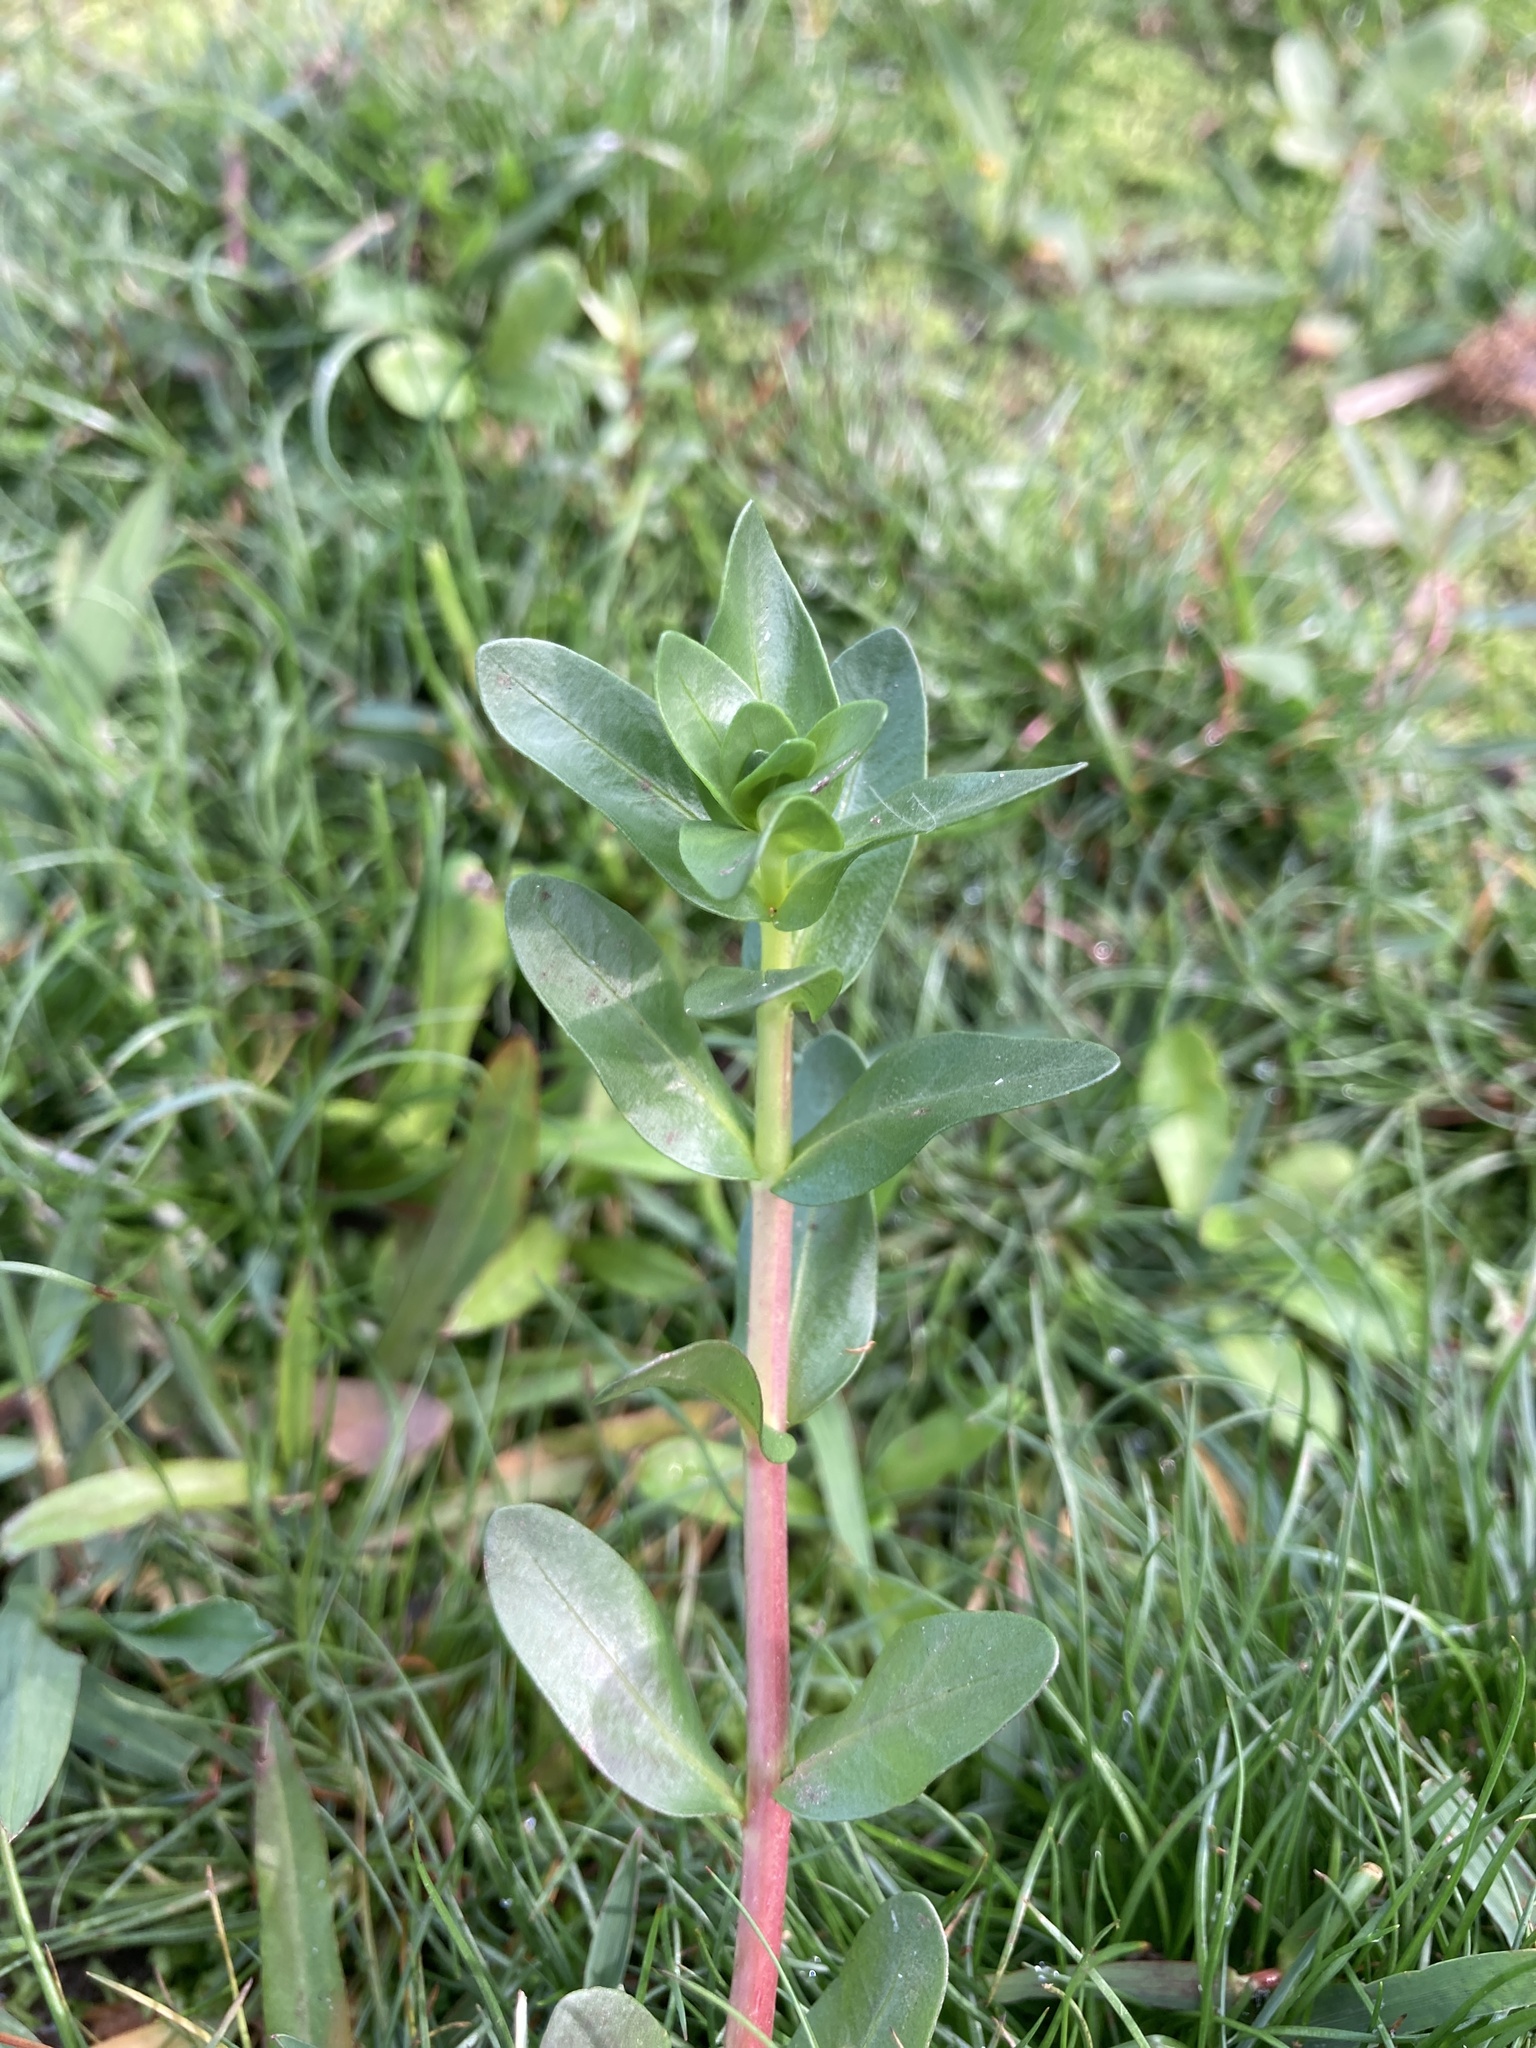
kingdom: Plantae
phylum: Tracheophyta
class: Magnoliopsida
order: Myrtales
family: Lythraceae
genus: Lythrum
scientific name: Lythrum hyssopifolia
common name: Grass-poly
